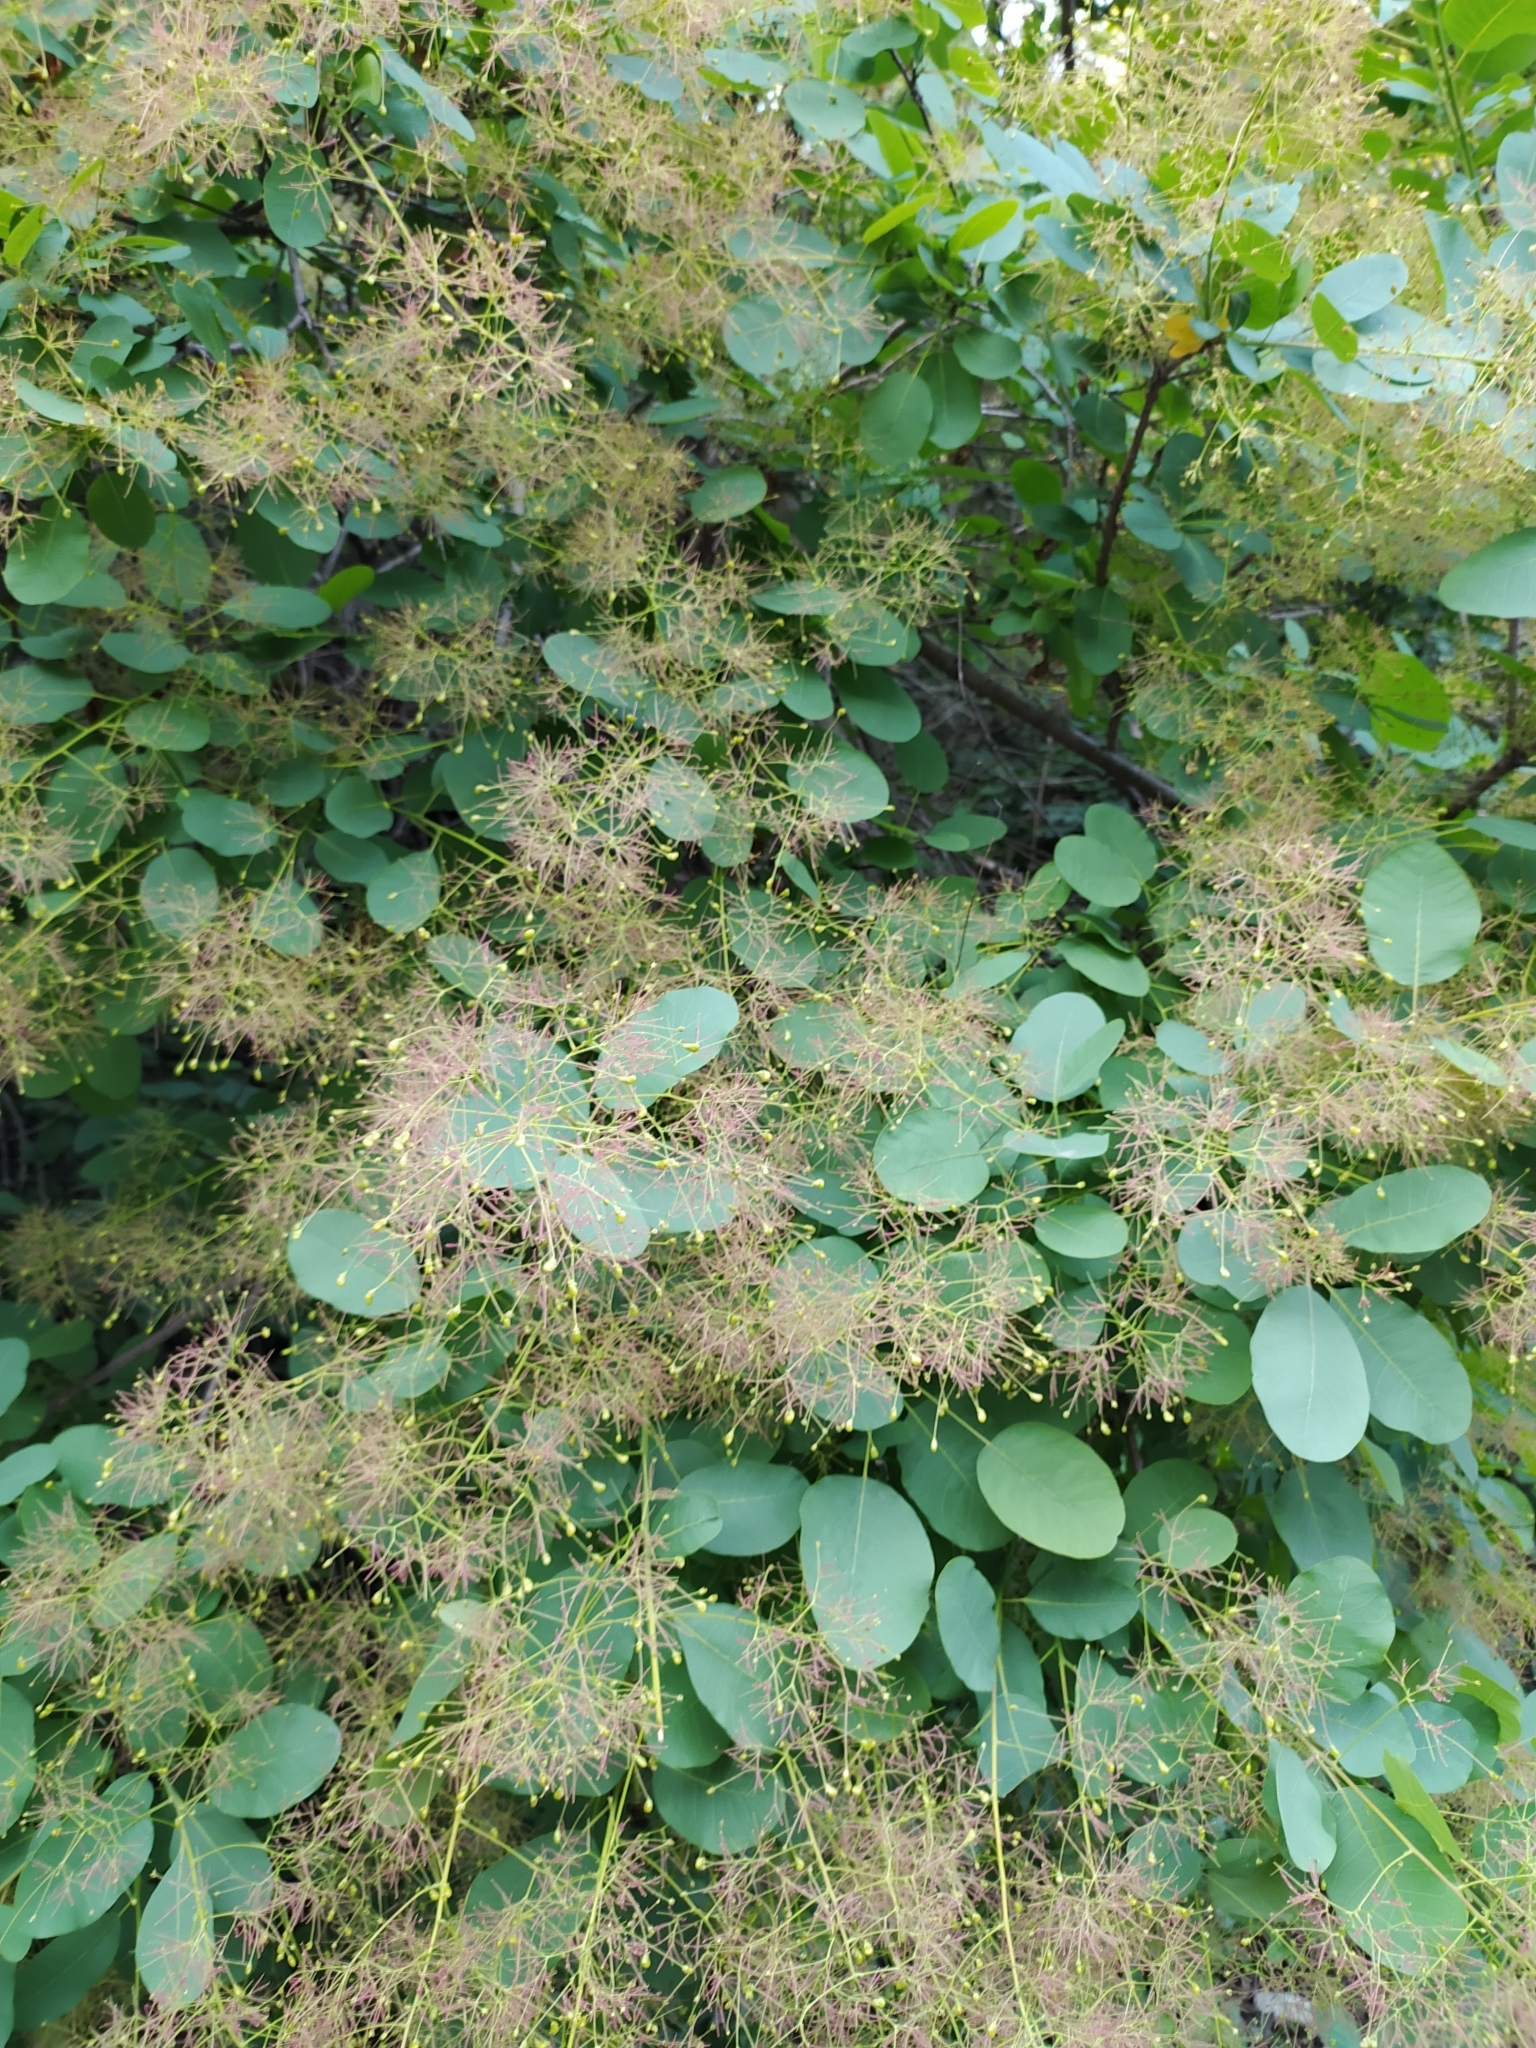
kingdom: Plantae
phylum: Tracheophyta
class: Magnoliopsida
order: Sapindales
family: Anacardiaceae
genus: Cotinus
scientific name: Cotinus coggygria
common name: Smoke-tree
